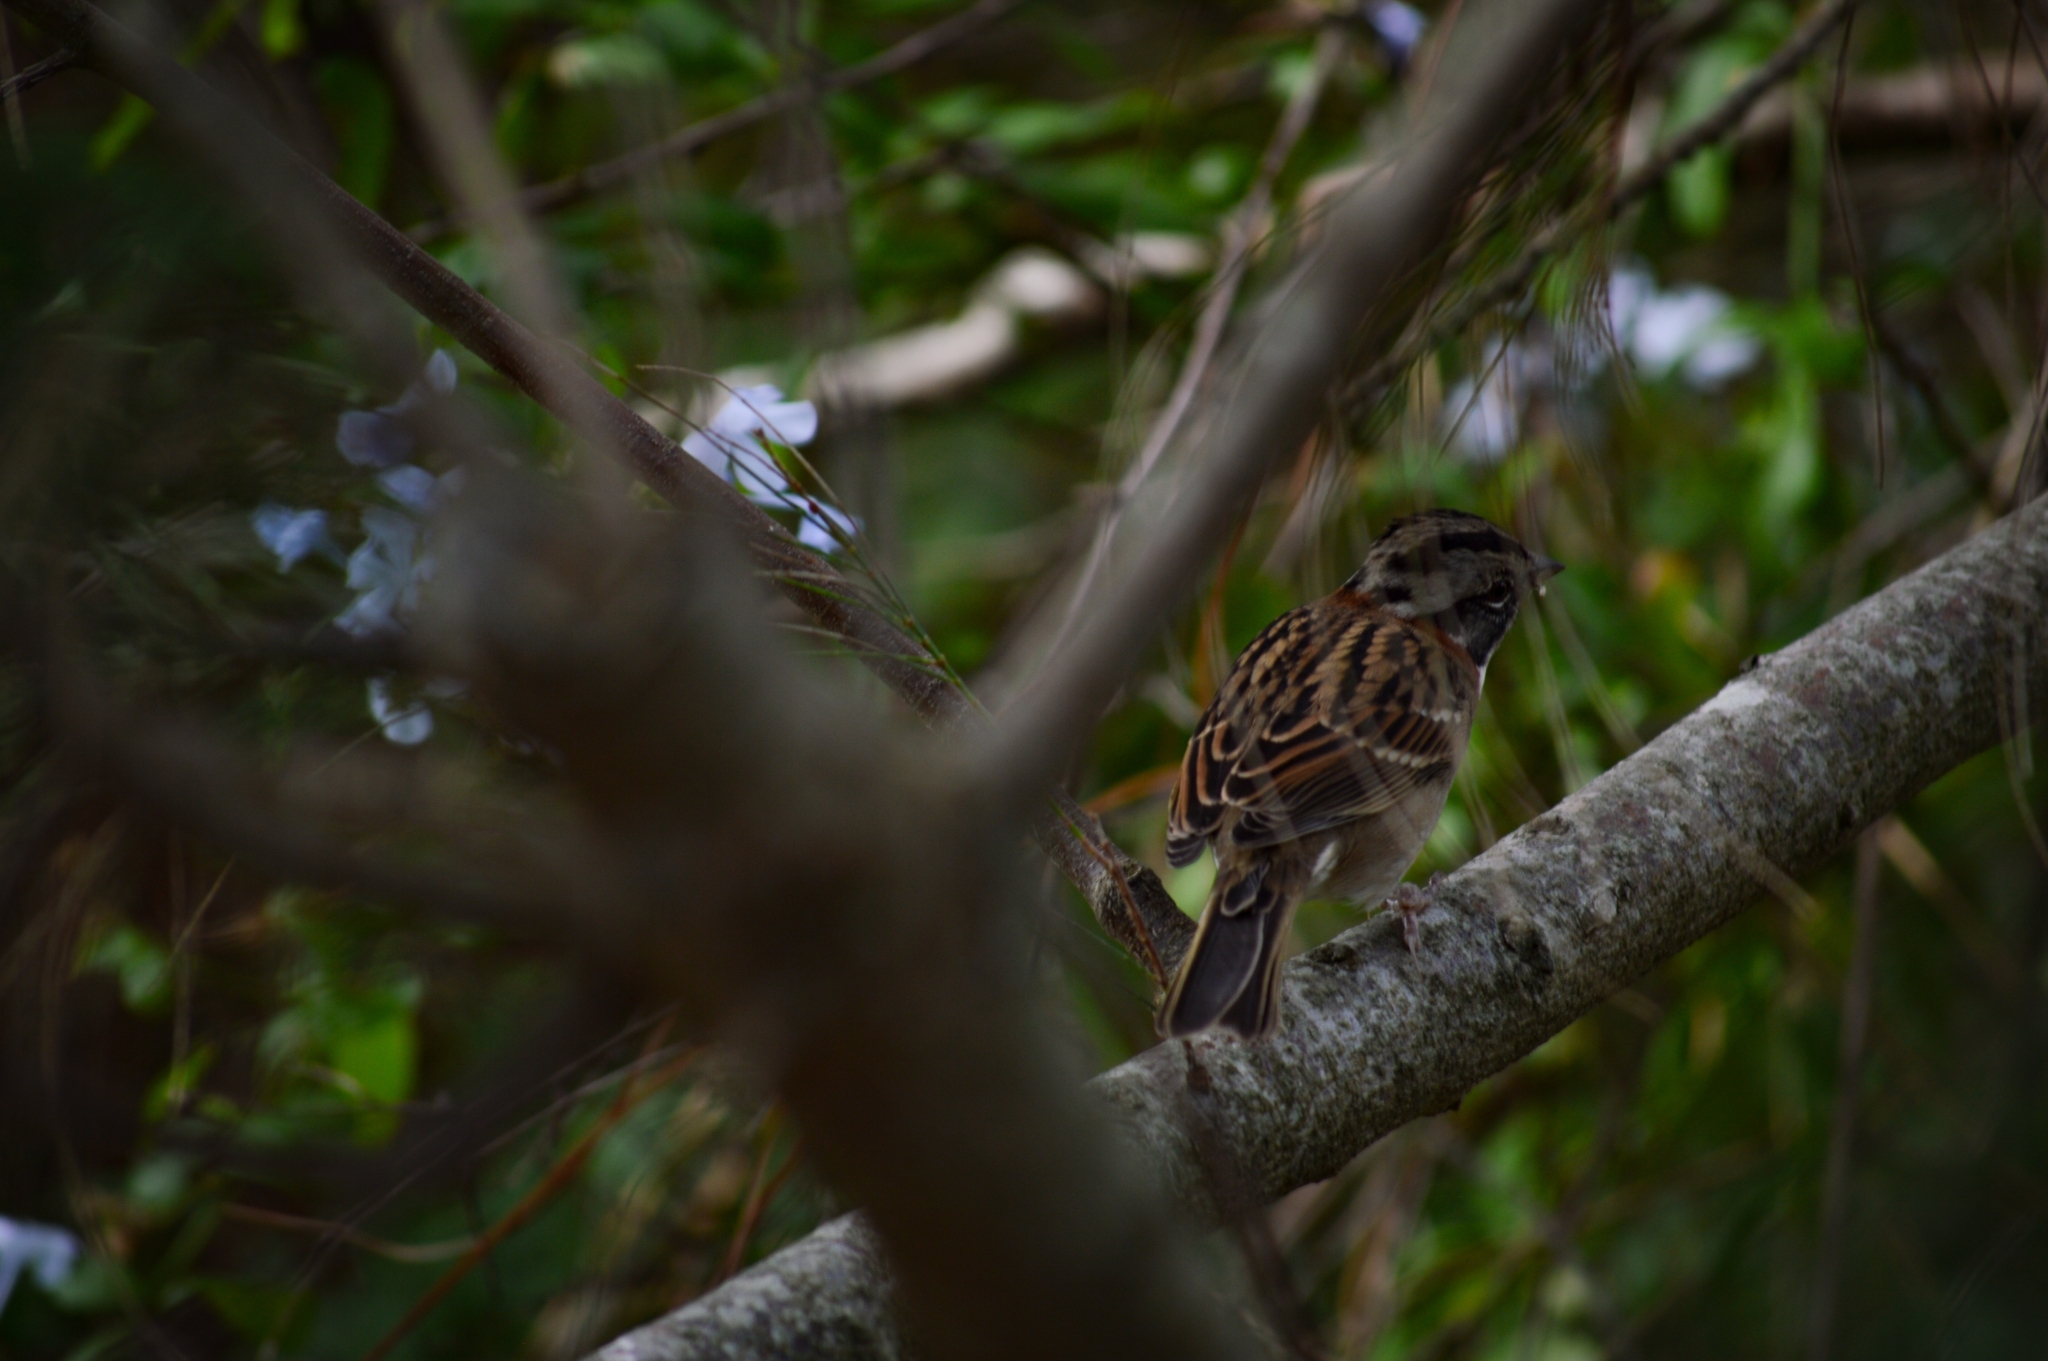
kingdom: Animalia
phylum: Chordata
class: Aves
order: Passeriformes
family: Passerellidae
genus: Zonotrichia
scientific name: Zonotrichia capensis
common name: Rufous-collared sparrow
